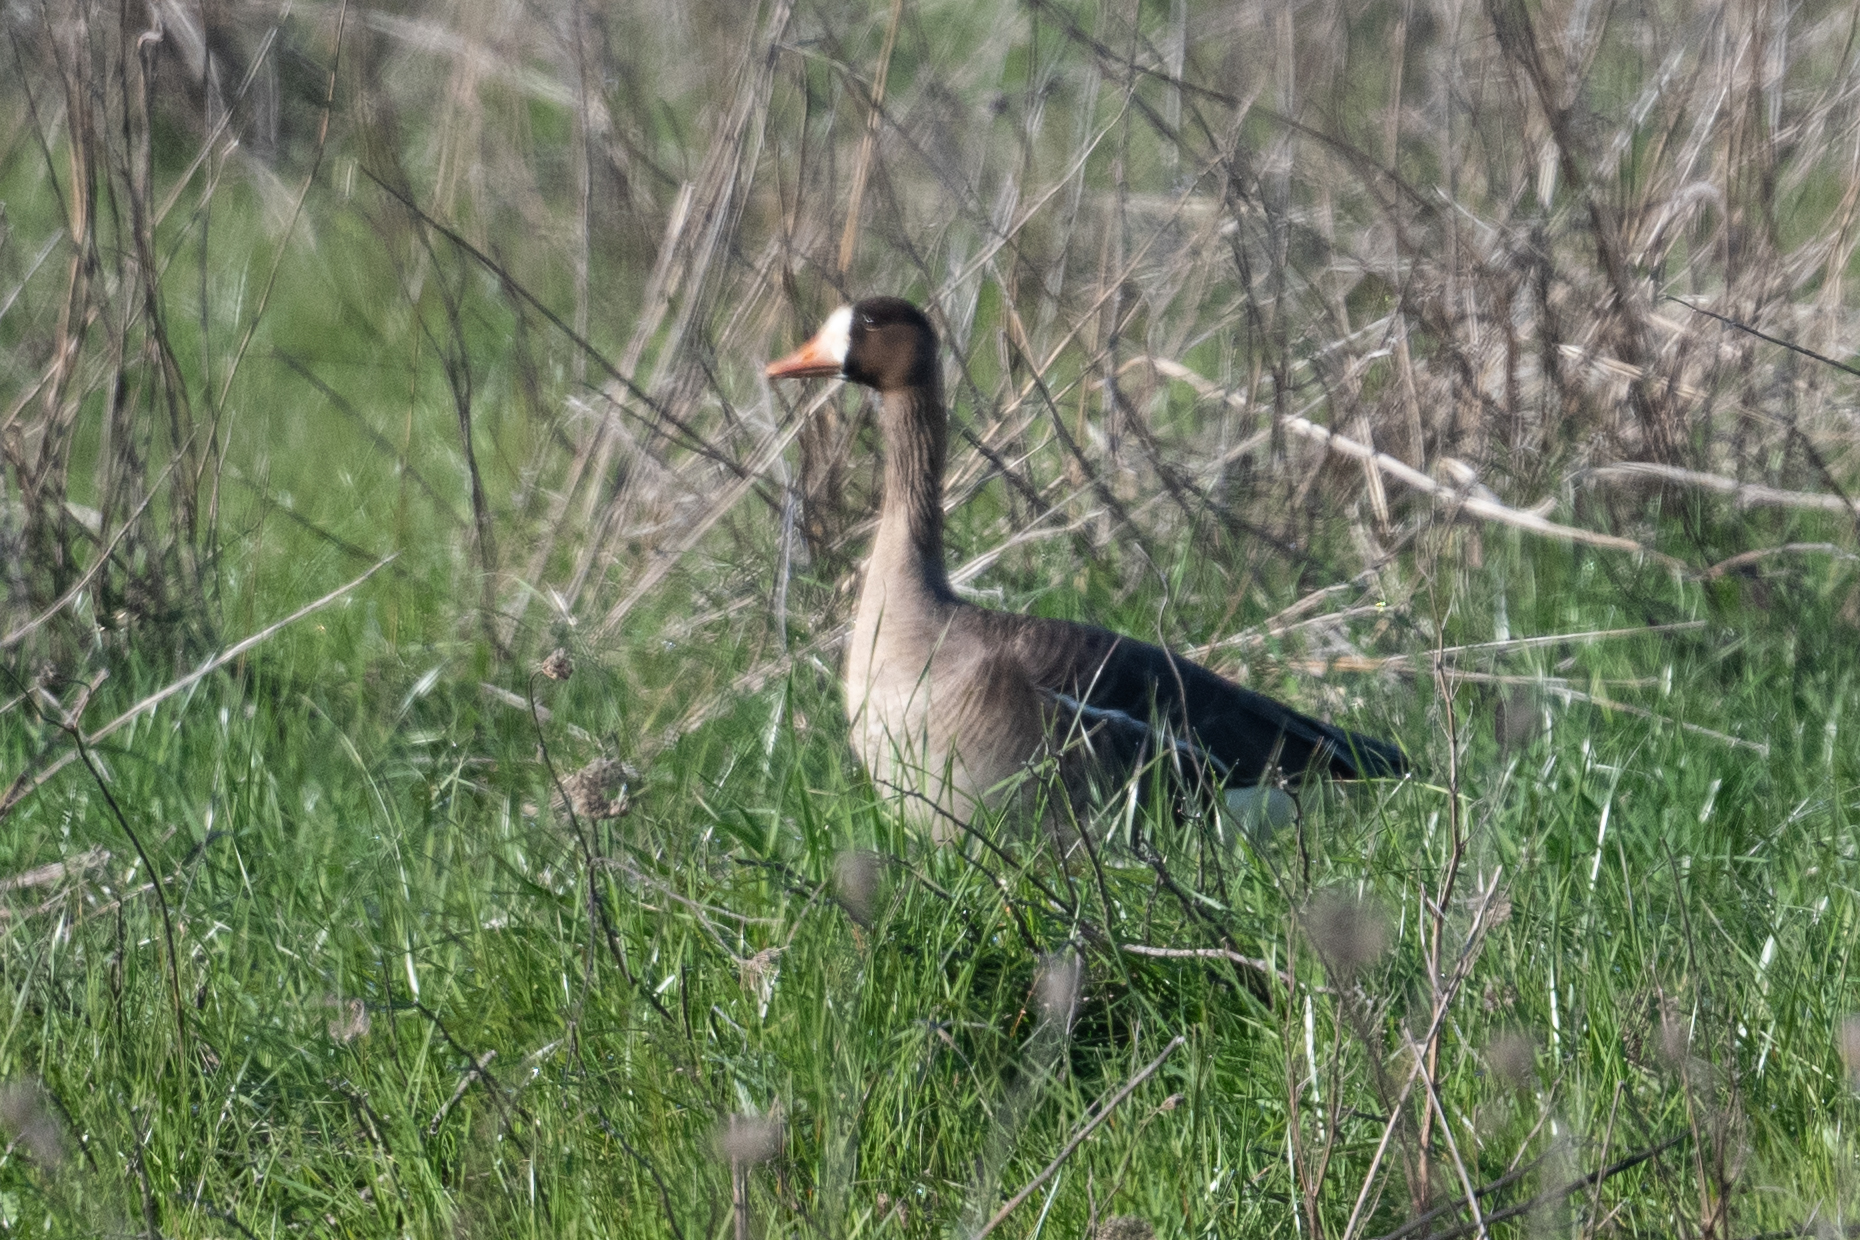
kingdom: Animalia
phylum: Chordata
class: Aves
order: Anseriformes
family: Anatidae
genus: Anser
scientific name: Anser albifrons
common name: Greater white-fronted goose
